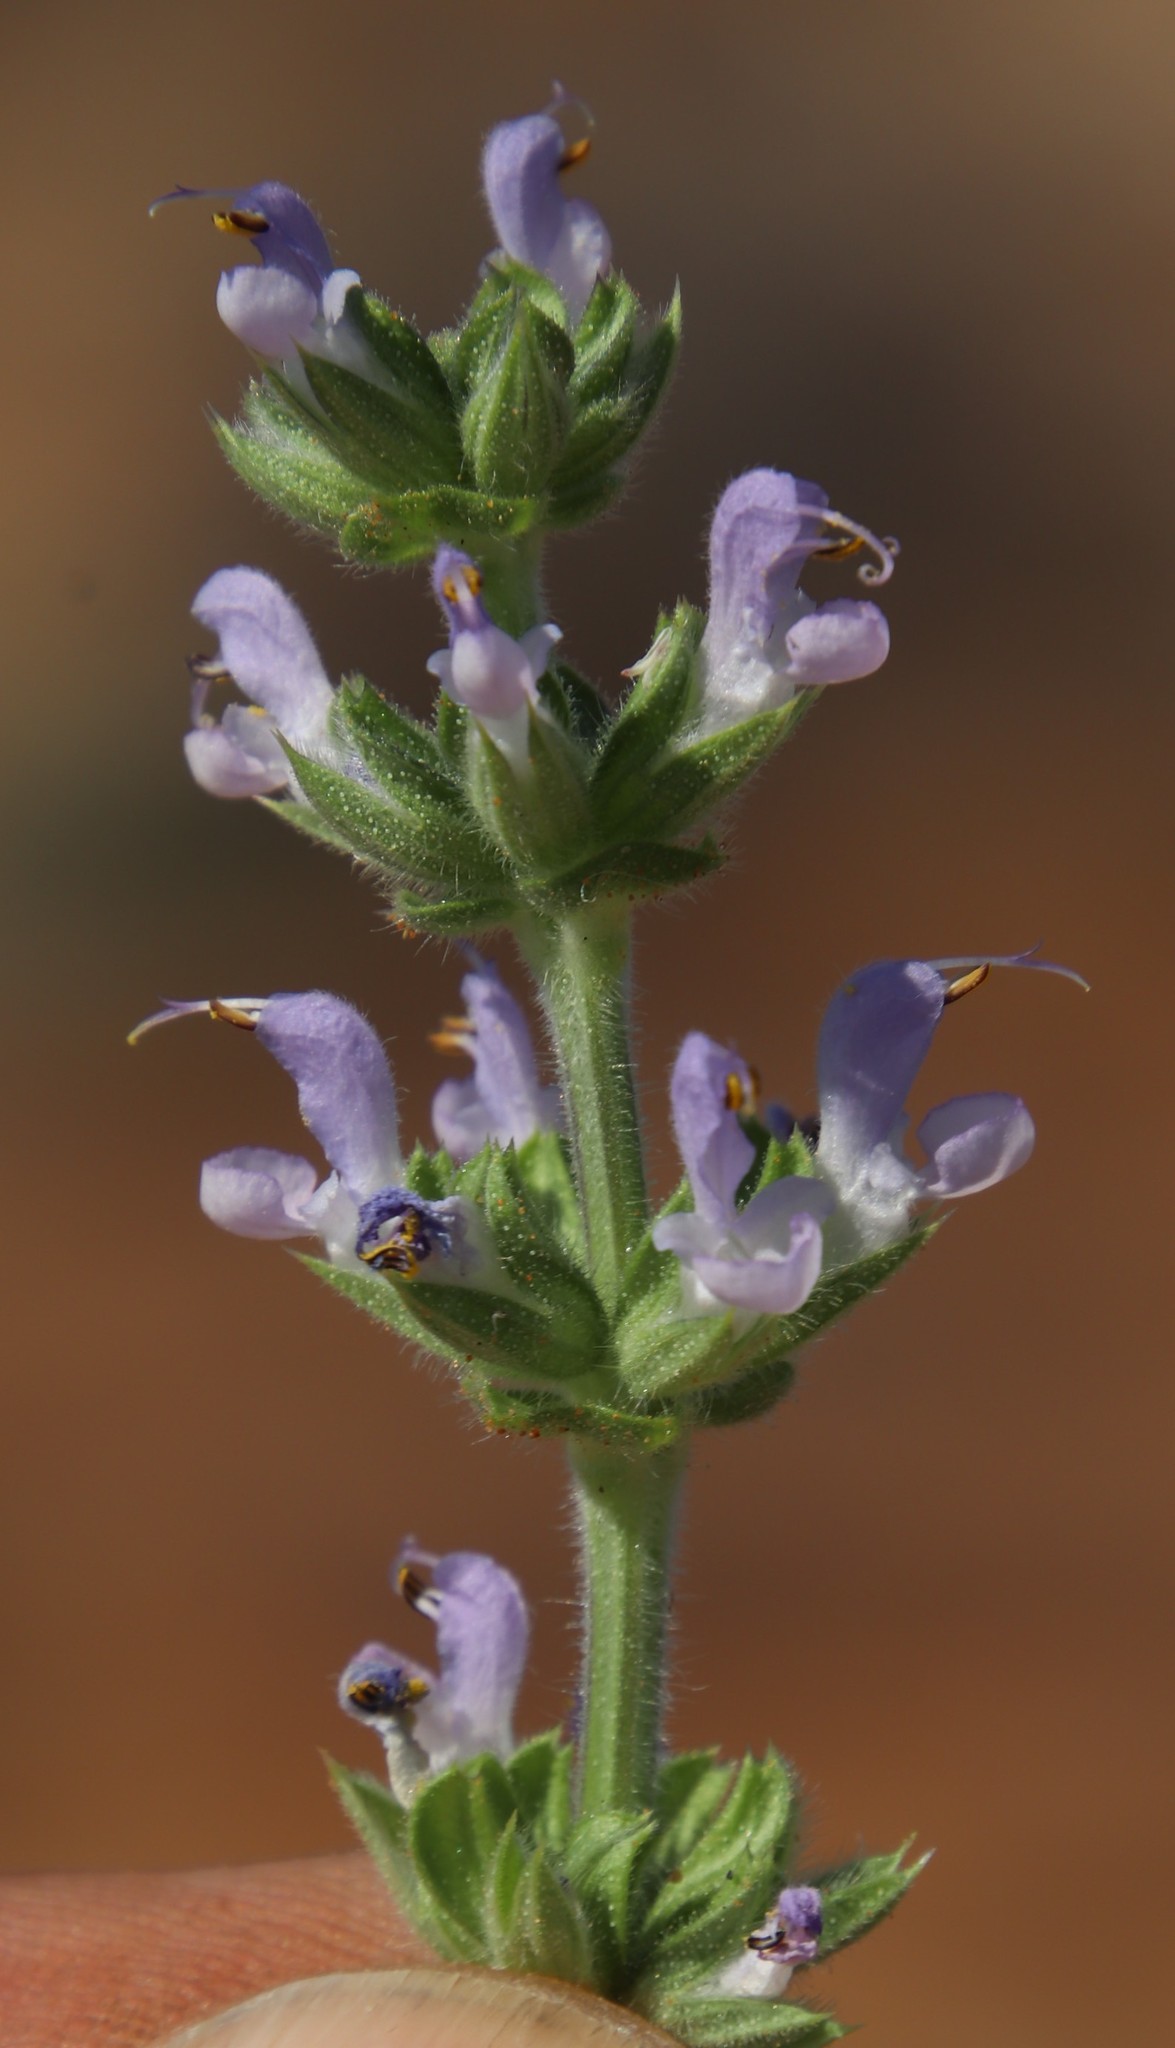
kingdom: Plantae
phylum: Tracheophyta
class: Magnoliopsida
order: Lamiales
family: Lamiaceae
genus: Salvia
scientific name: Salvia verbenaca
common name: Wild clary
